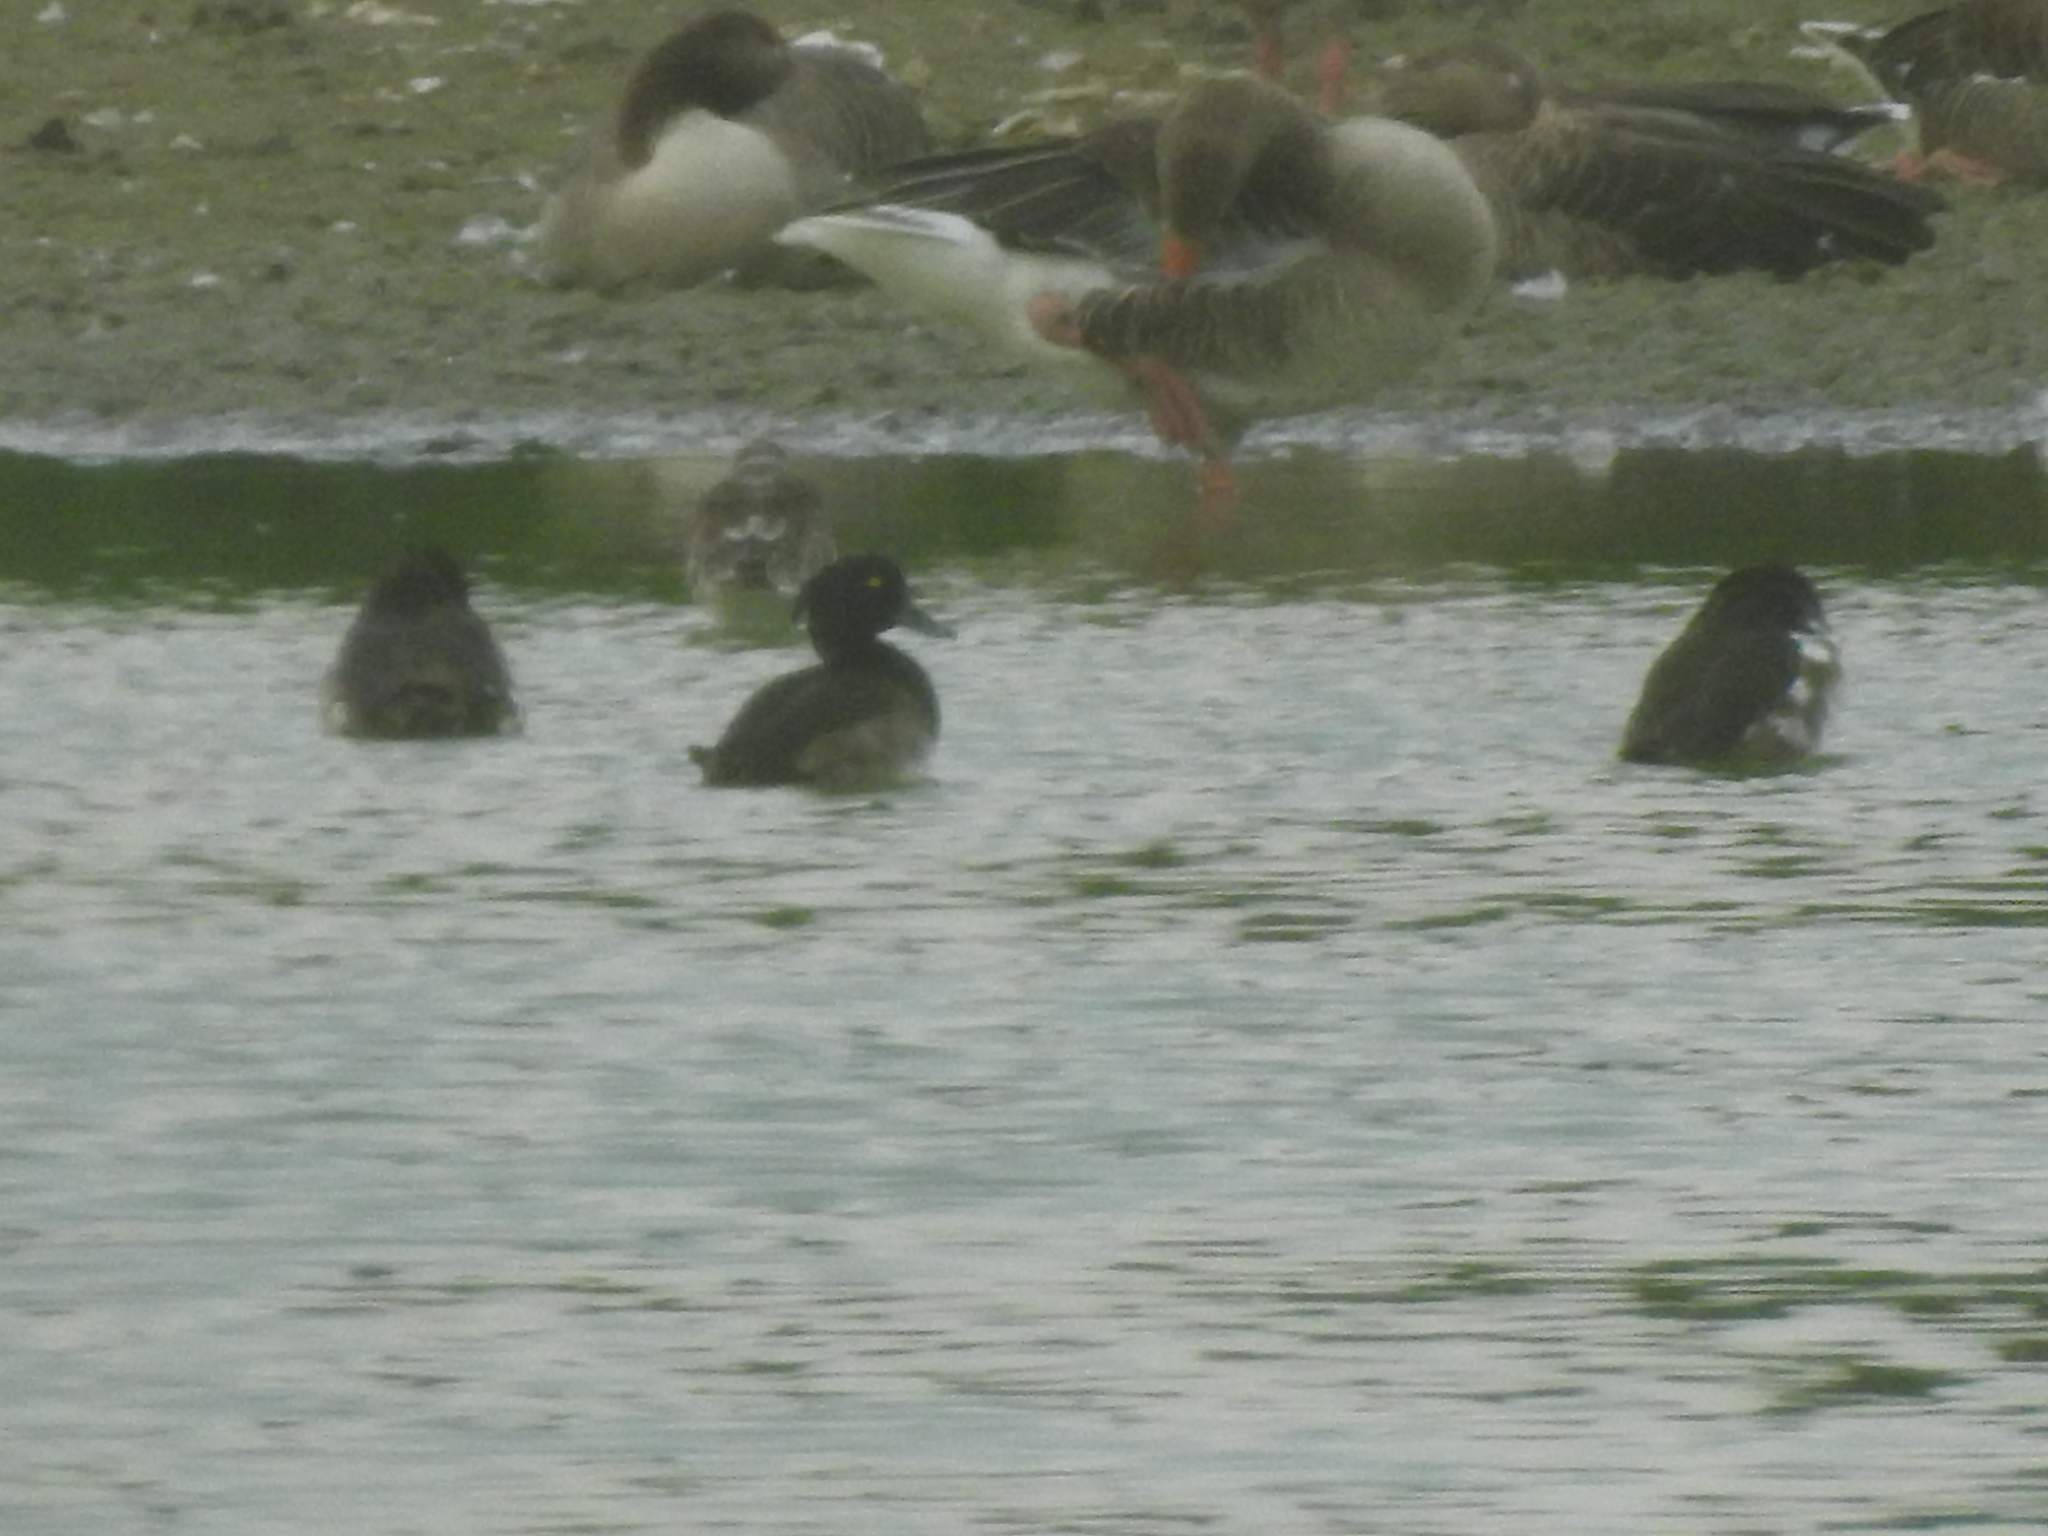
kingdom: Animalia
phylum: Chordata
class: Aves
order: Anseriformes
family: Anatidae
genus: Aythya
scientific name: Aythya fuligula
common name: Tufted duck
